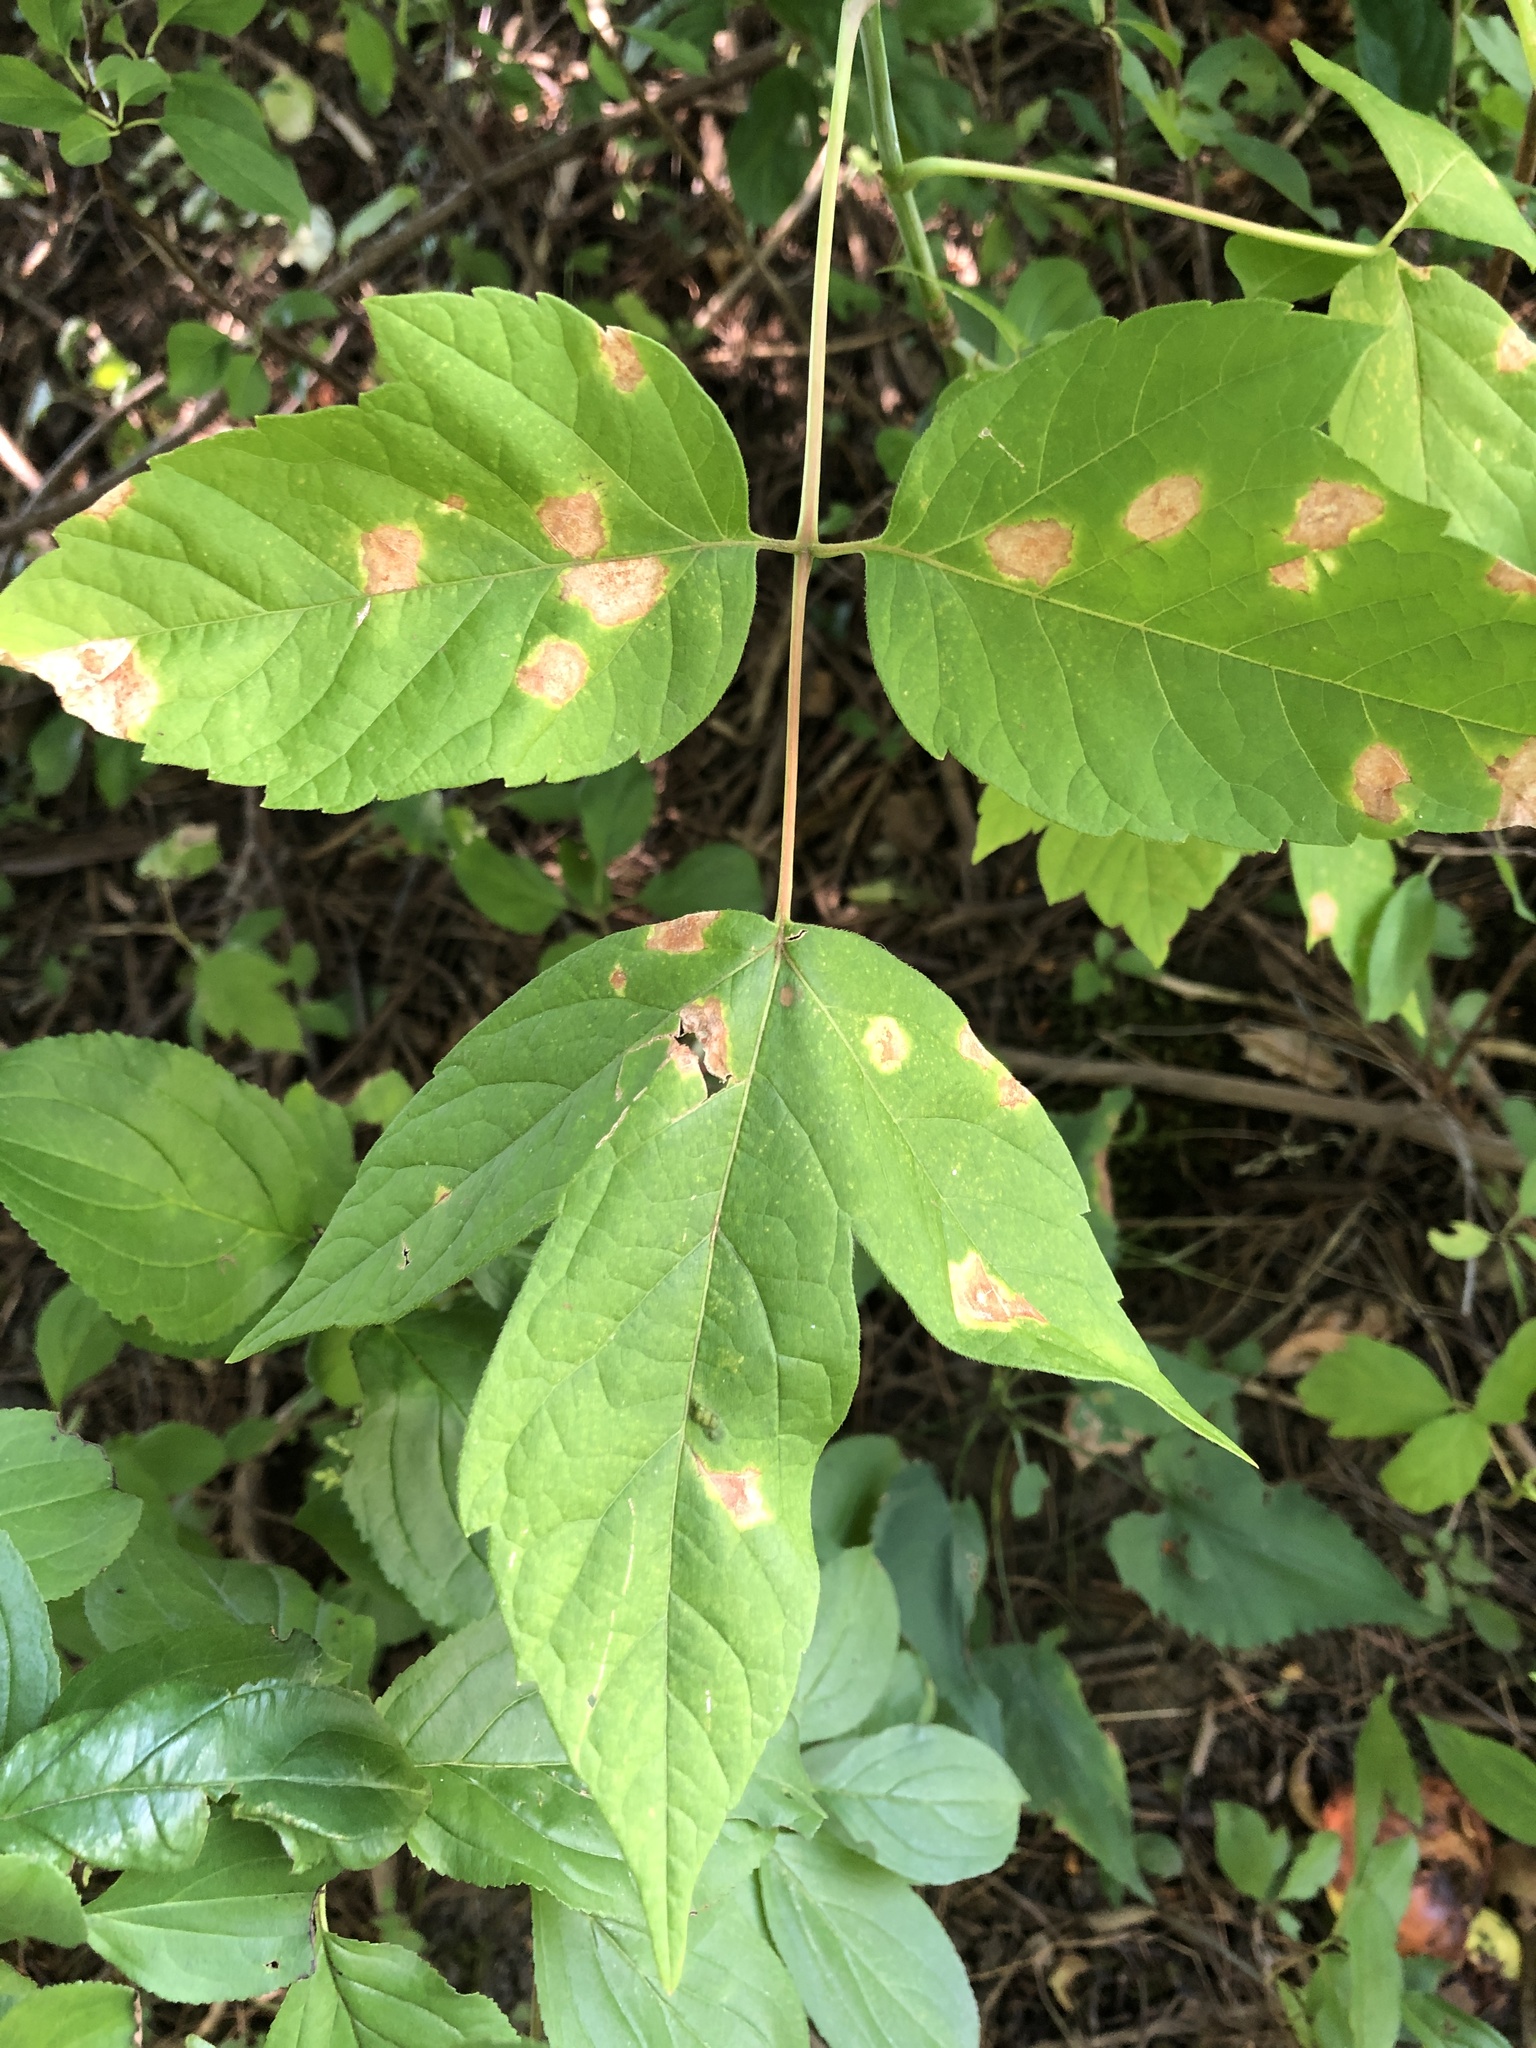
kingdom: Plantae
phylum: Tracheophyta
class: Magnoliopsida
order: Sapindales
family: Sapindaceae
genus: Acer
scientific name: Acer negundo
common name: Ashleaf maple
